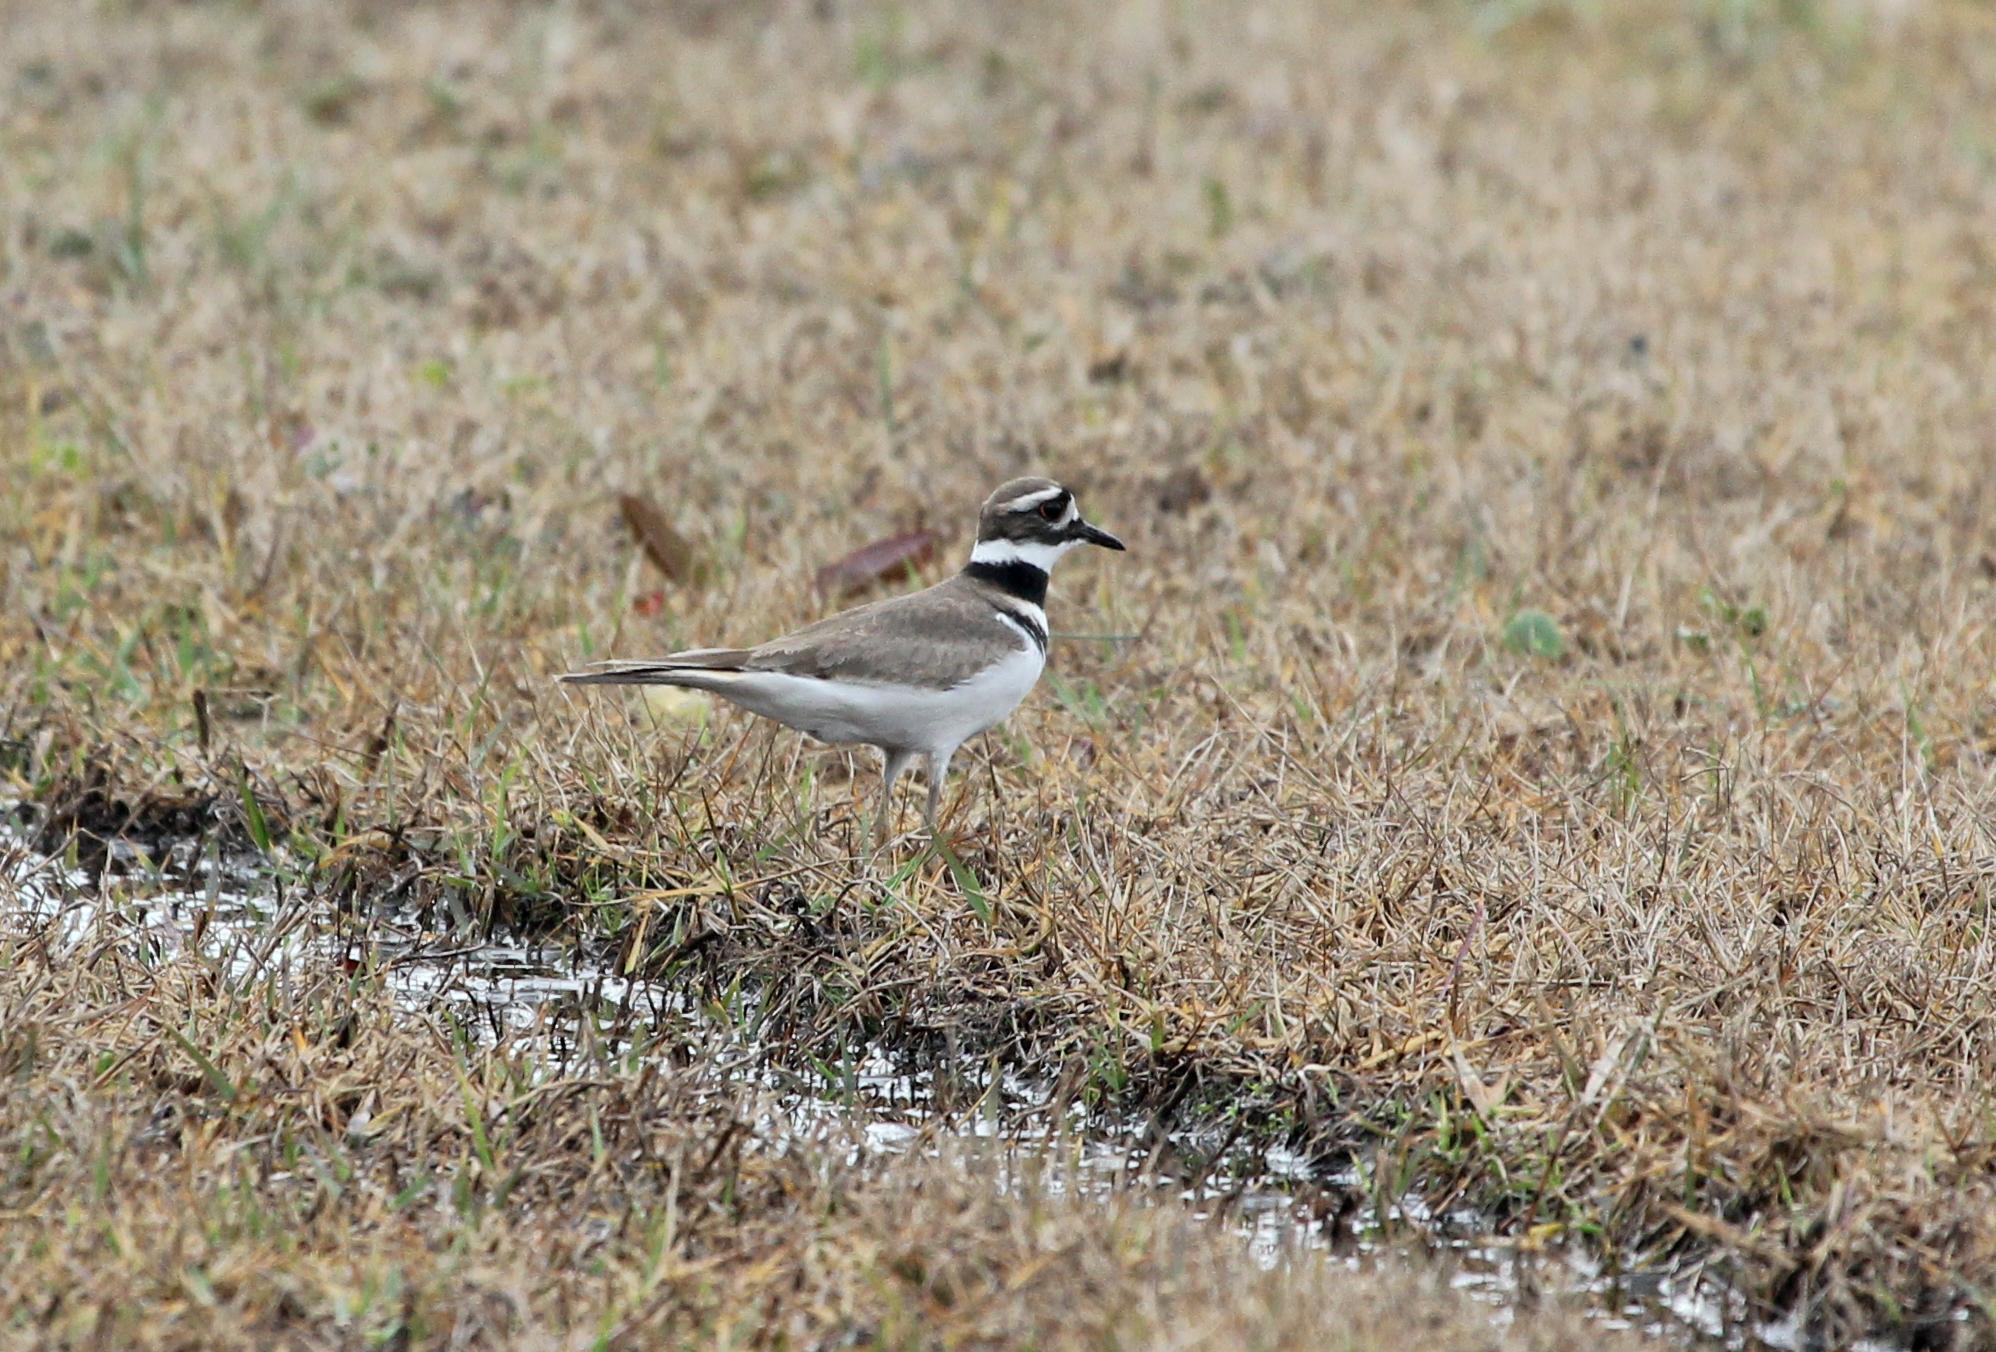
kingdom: Animalia
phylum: Chordata
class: Aves
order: Charadriiformes
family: Charadriidae
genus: Charadrius
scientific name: Charadrius vociferus
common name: Killdeer
